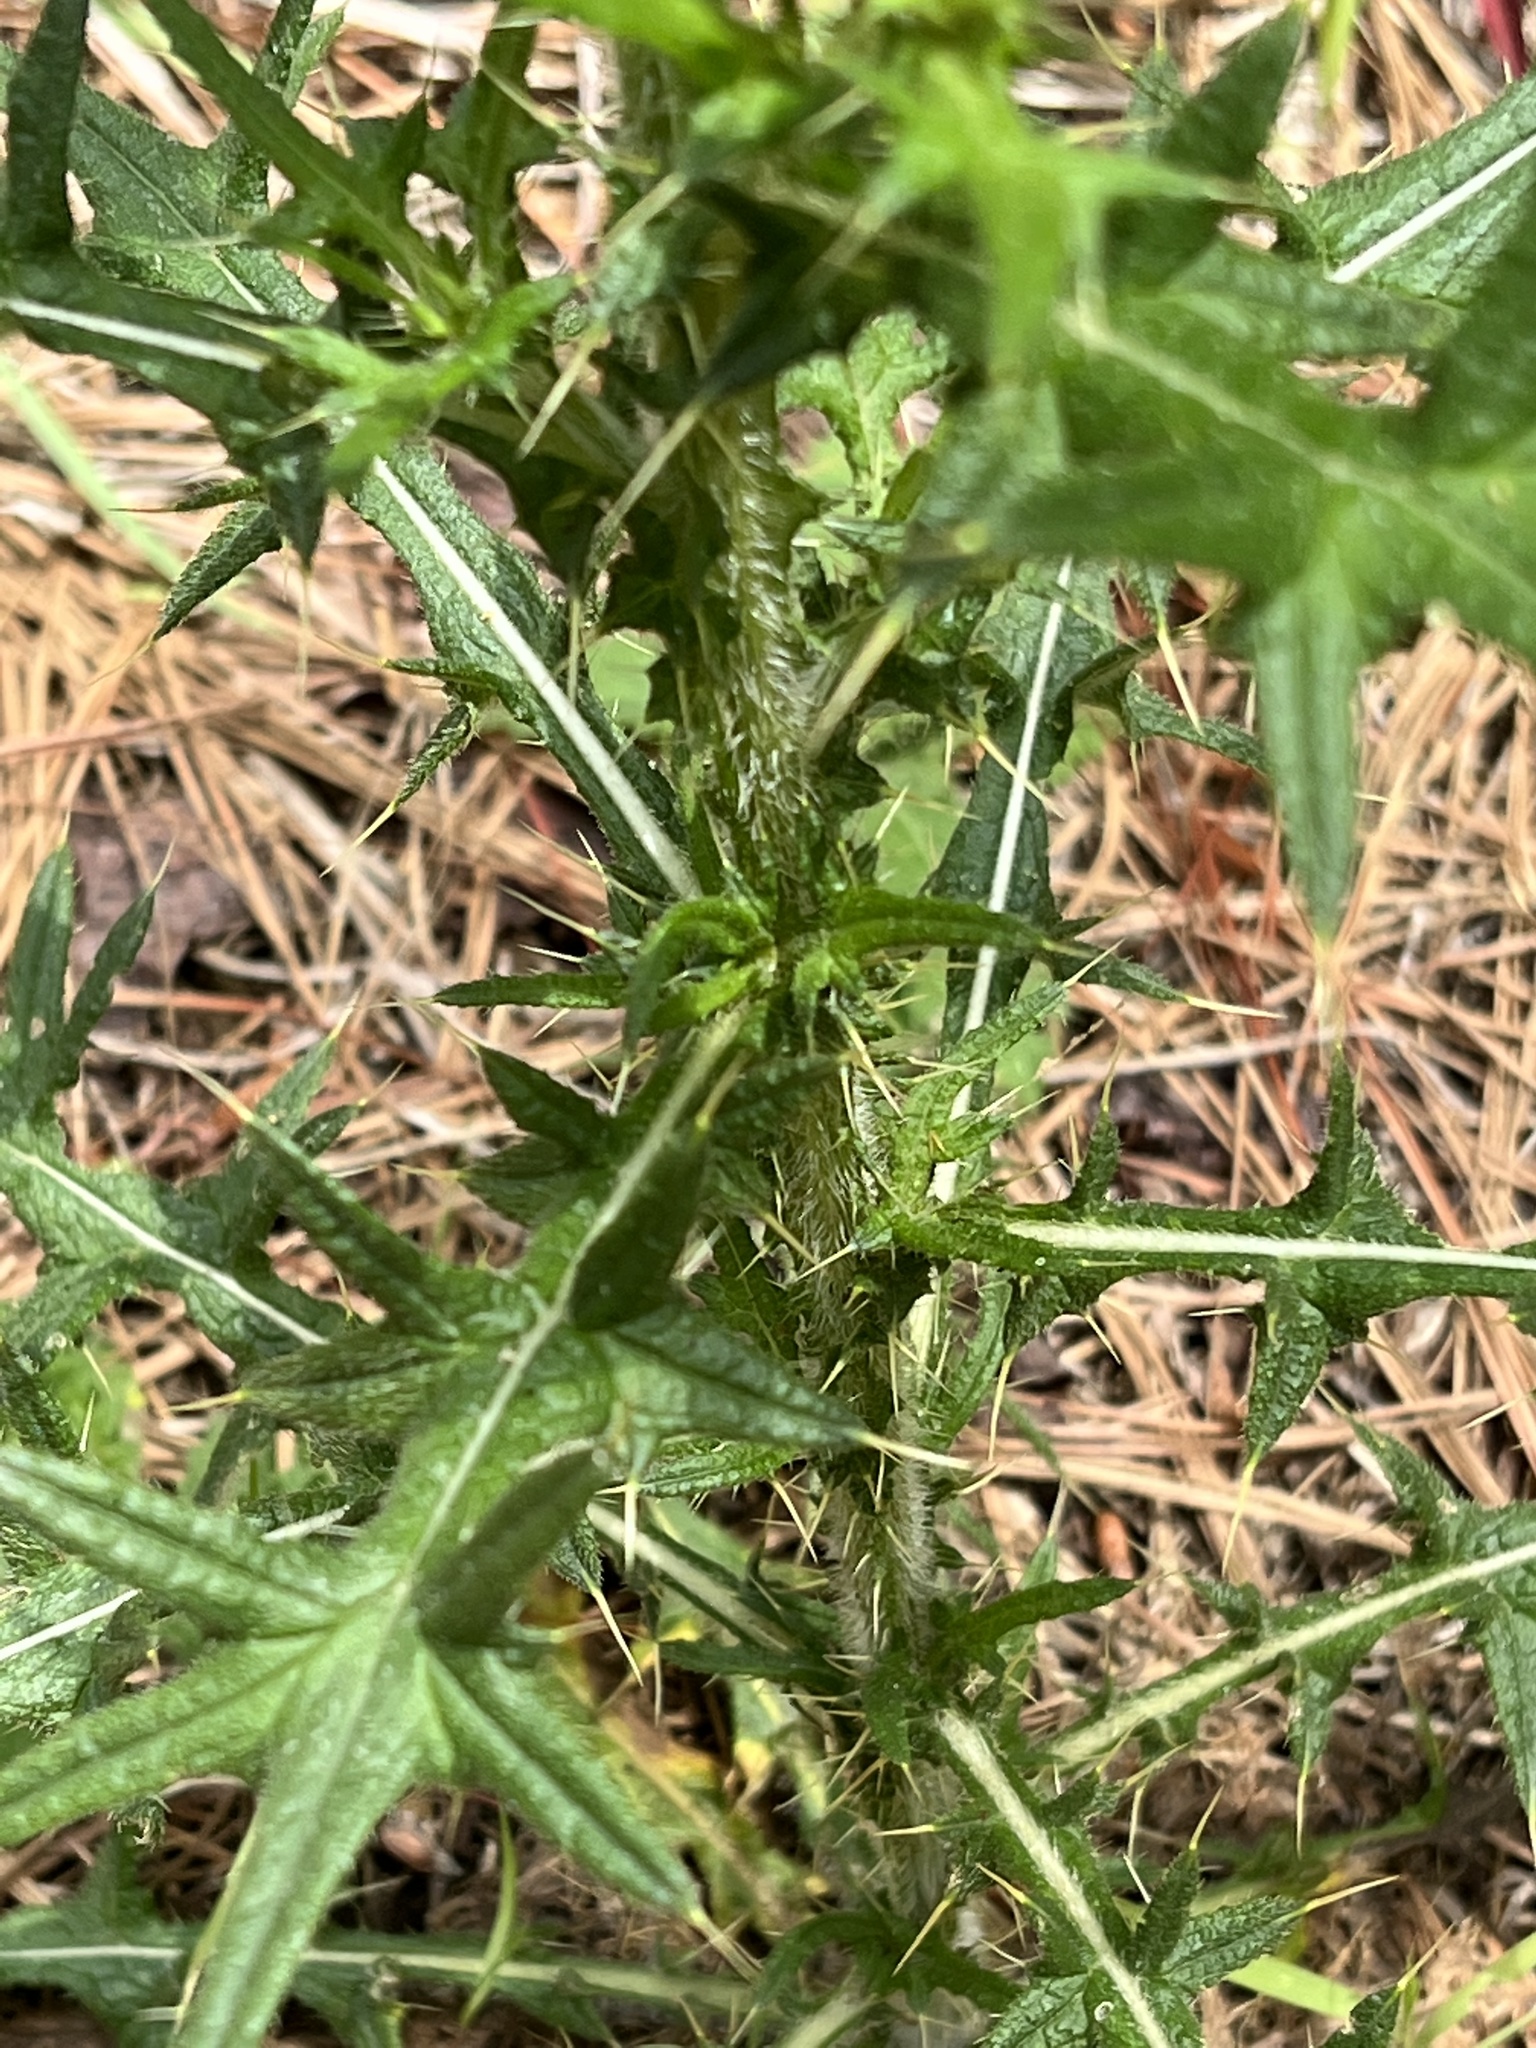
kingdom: Plantae
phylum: Tracheophyta
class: Magnoliopsida
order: Asterales
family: Asteraceae
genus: Cirsium
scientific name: Cirsium vulgare
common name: Bull thistle
